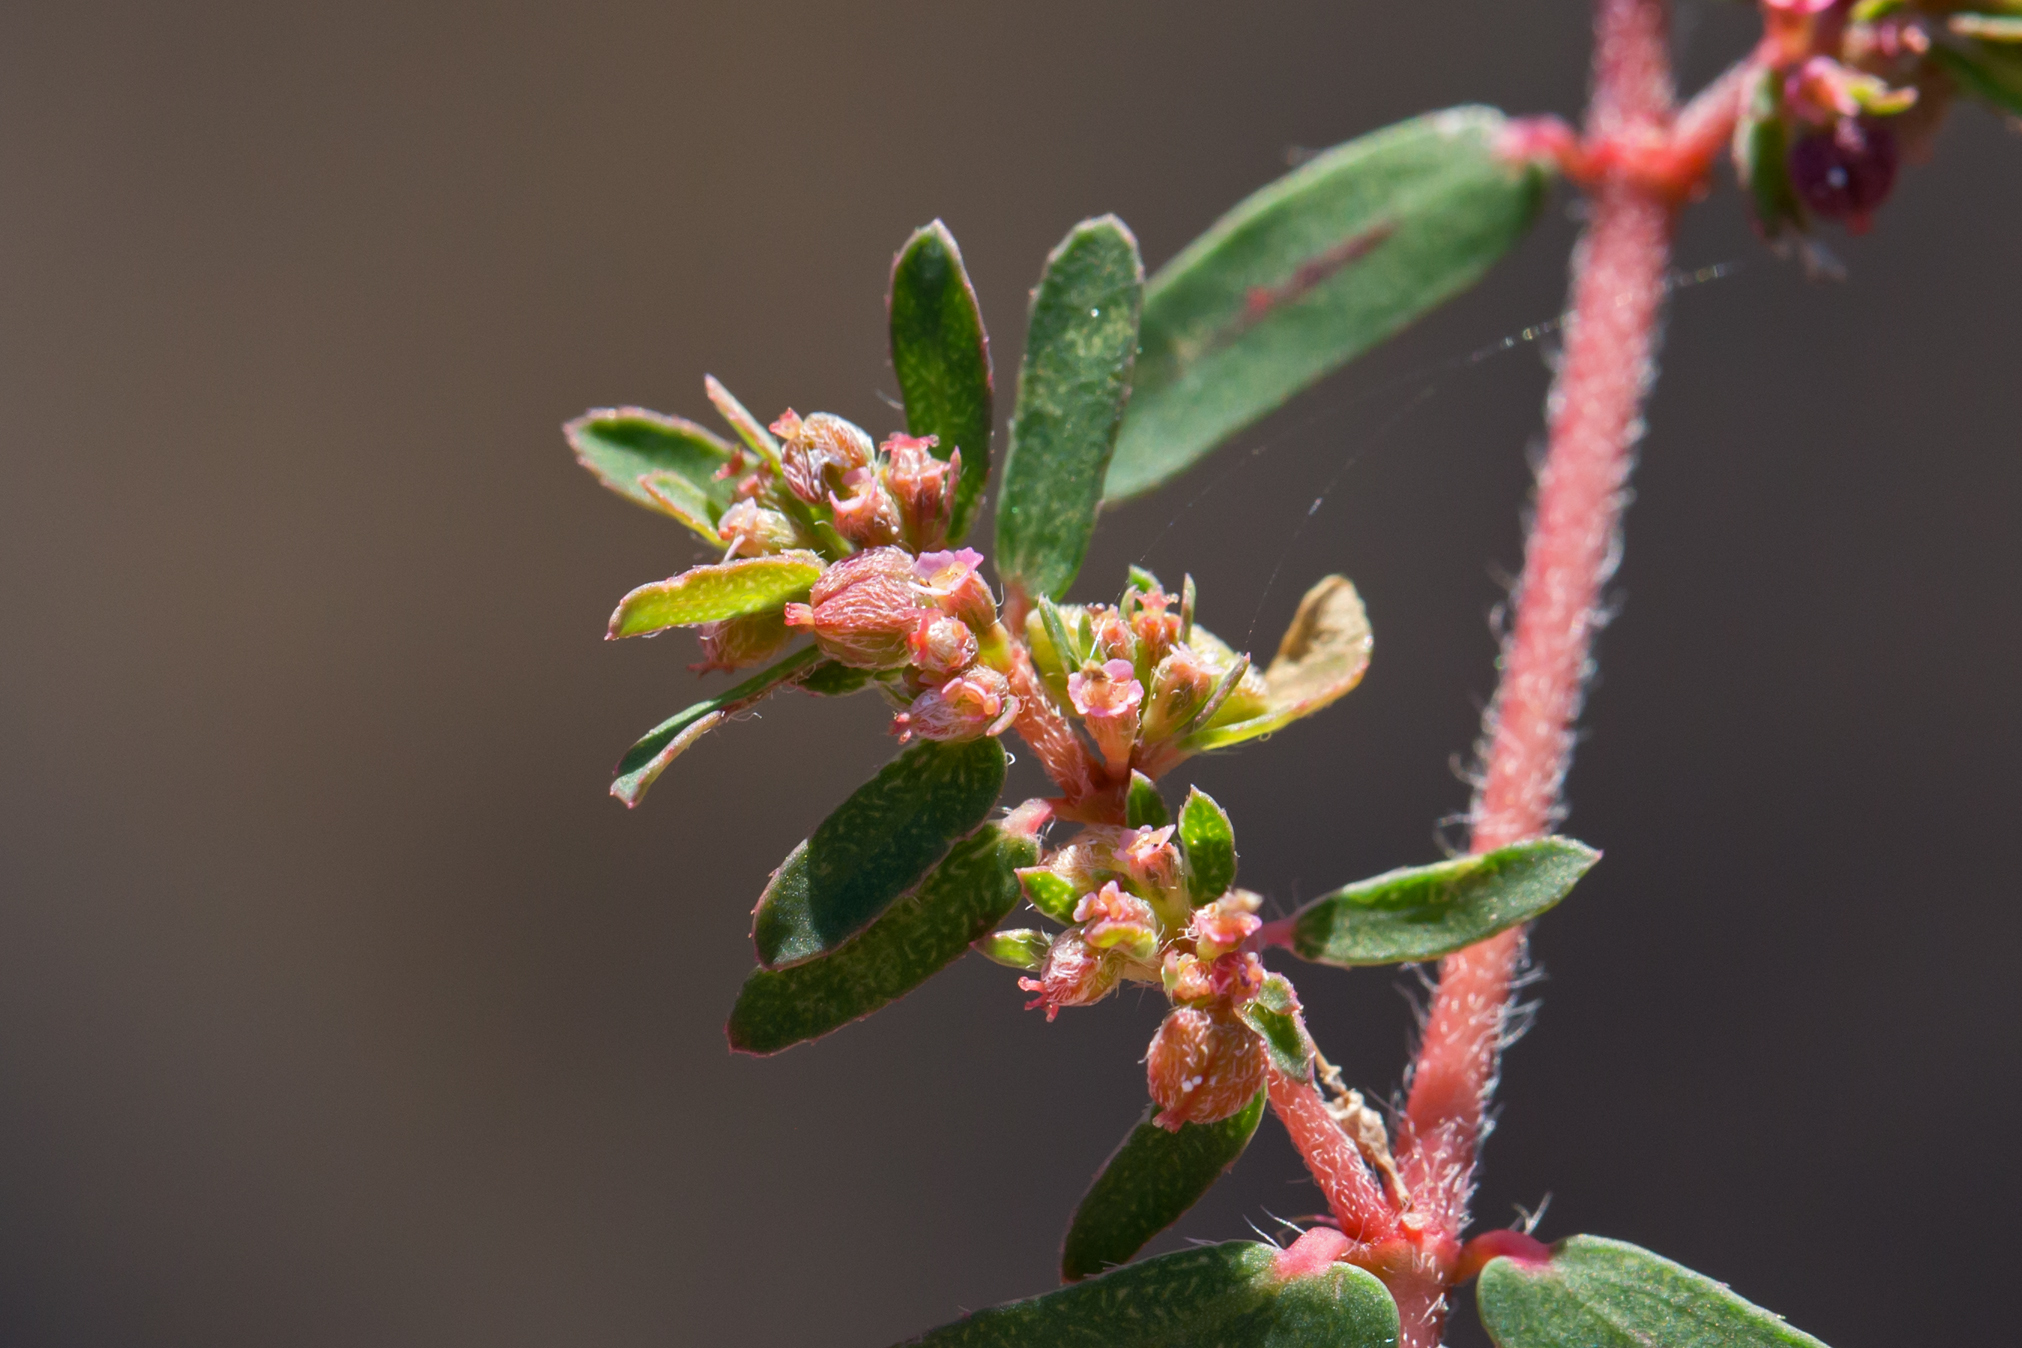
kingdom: Plantae
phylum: Tracheophyta
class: Magnoliopsida
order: Malpighiales
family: Euphorbiaceae
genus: Euphorbia
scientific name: Euphorbia maculata
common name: Spotted spurge
